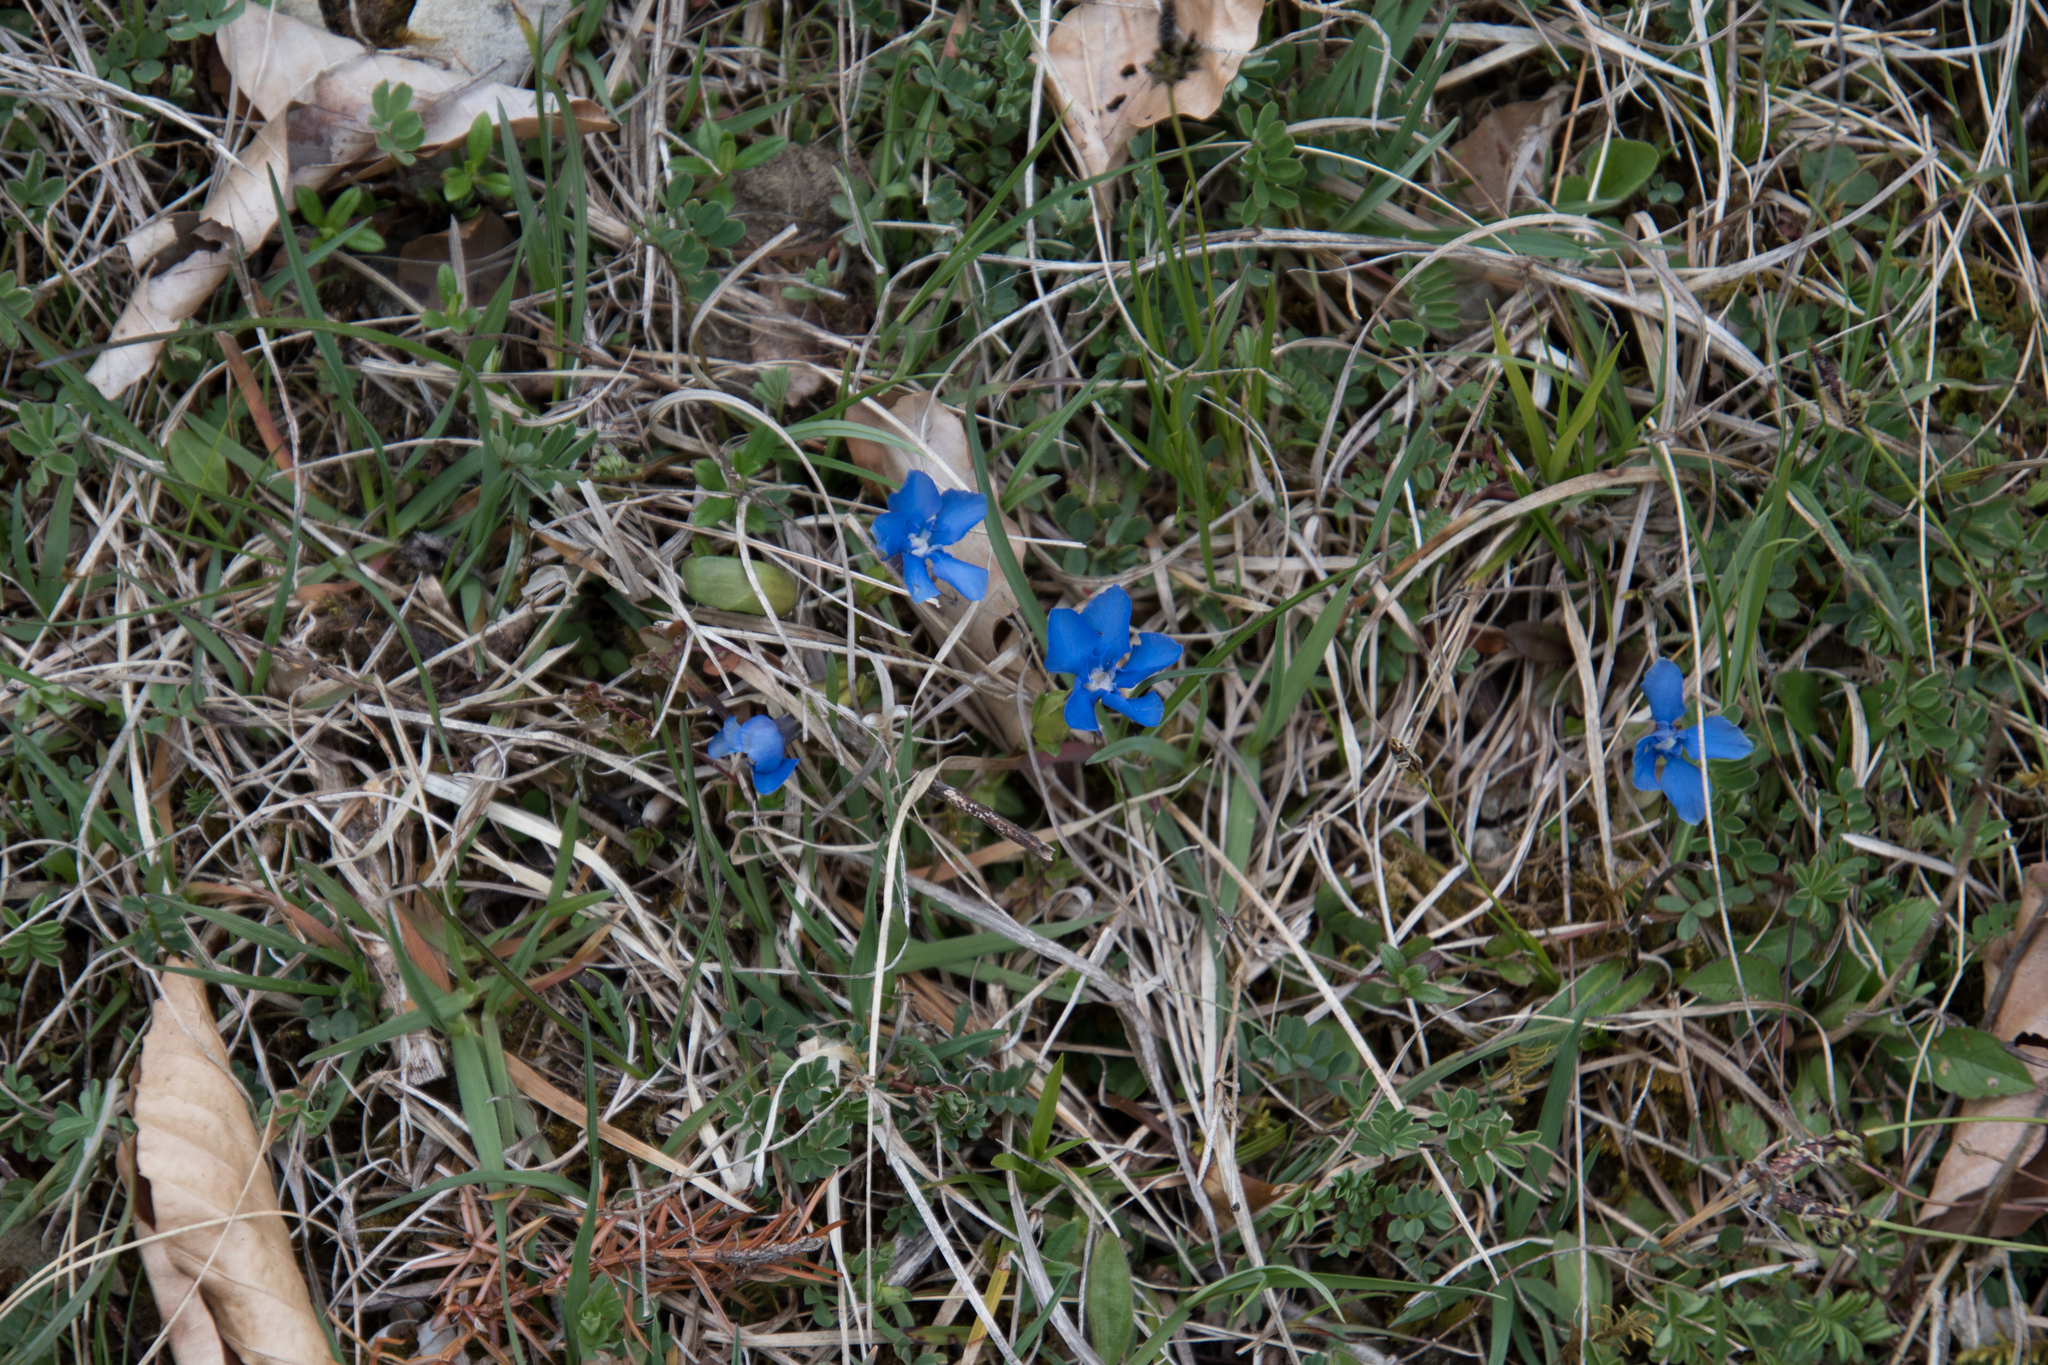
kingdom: Plantae
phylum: Tracheophyta
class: Magnoliopsida
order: Gentianales
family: Gentianaceae
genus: Gentiana
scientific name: Gentiana verna
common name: Spring gentian
